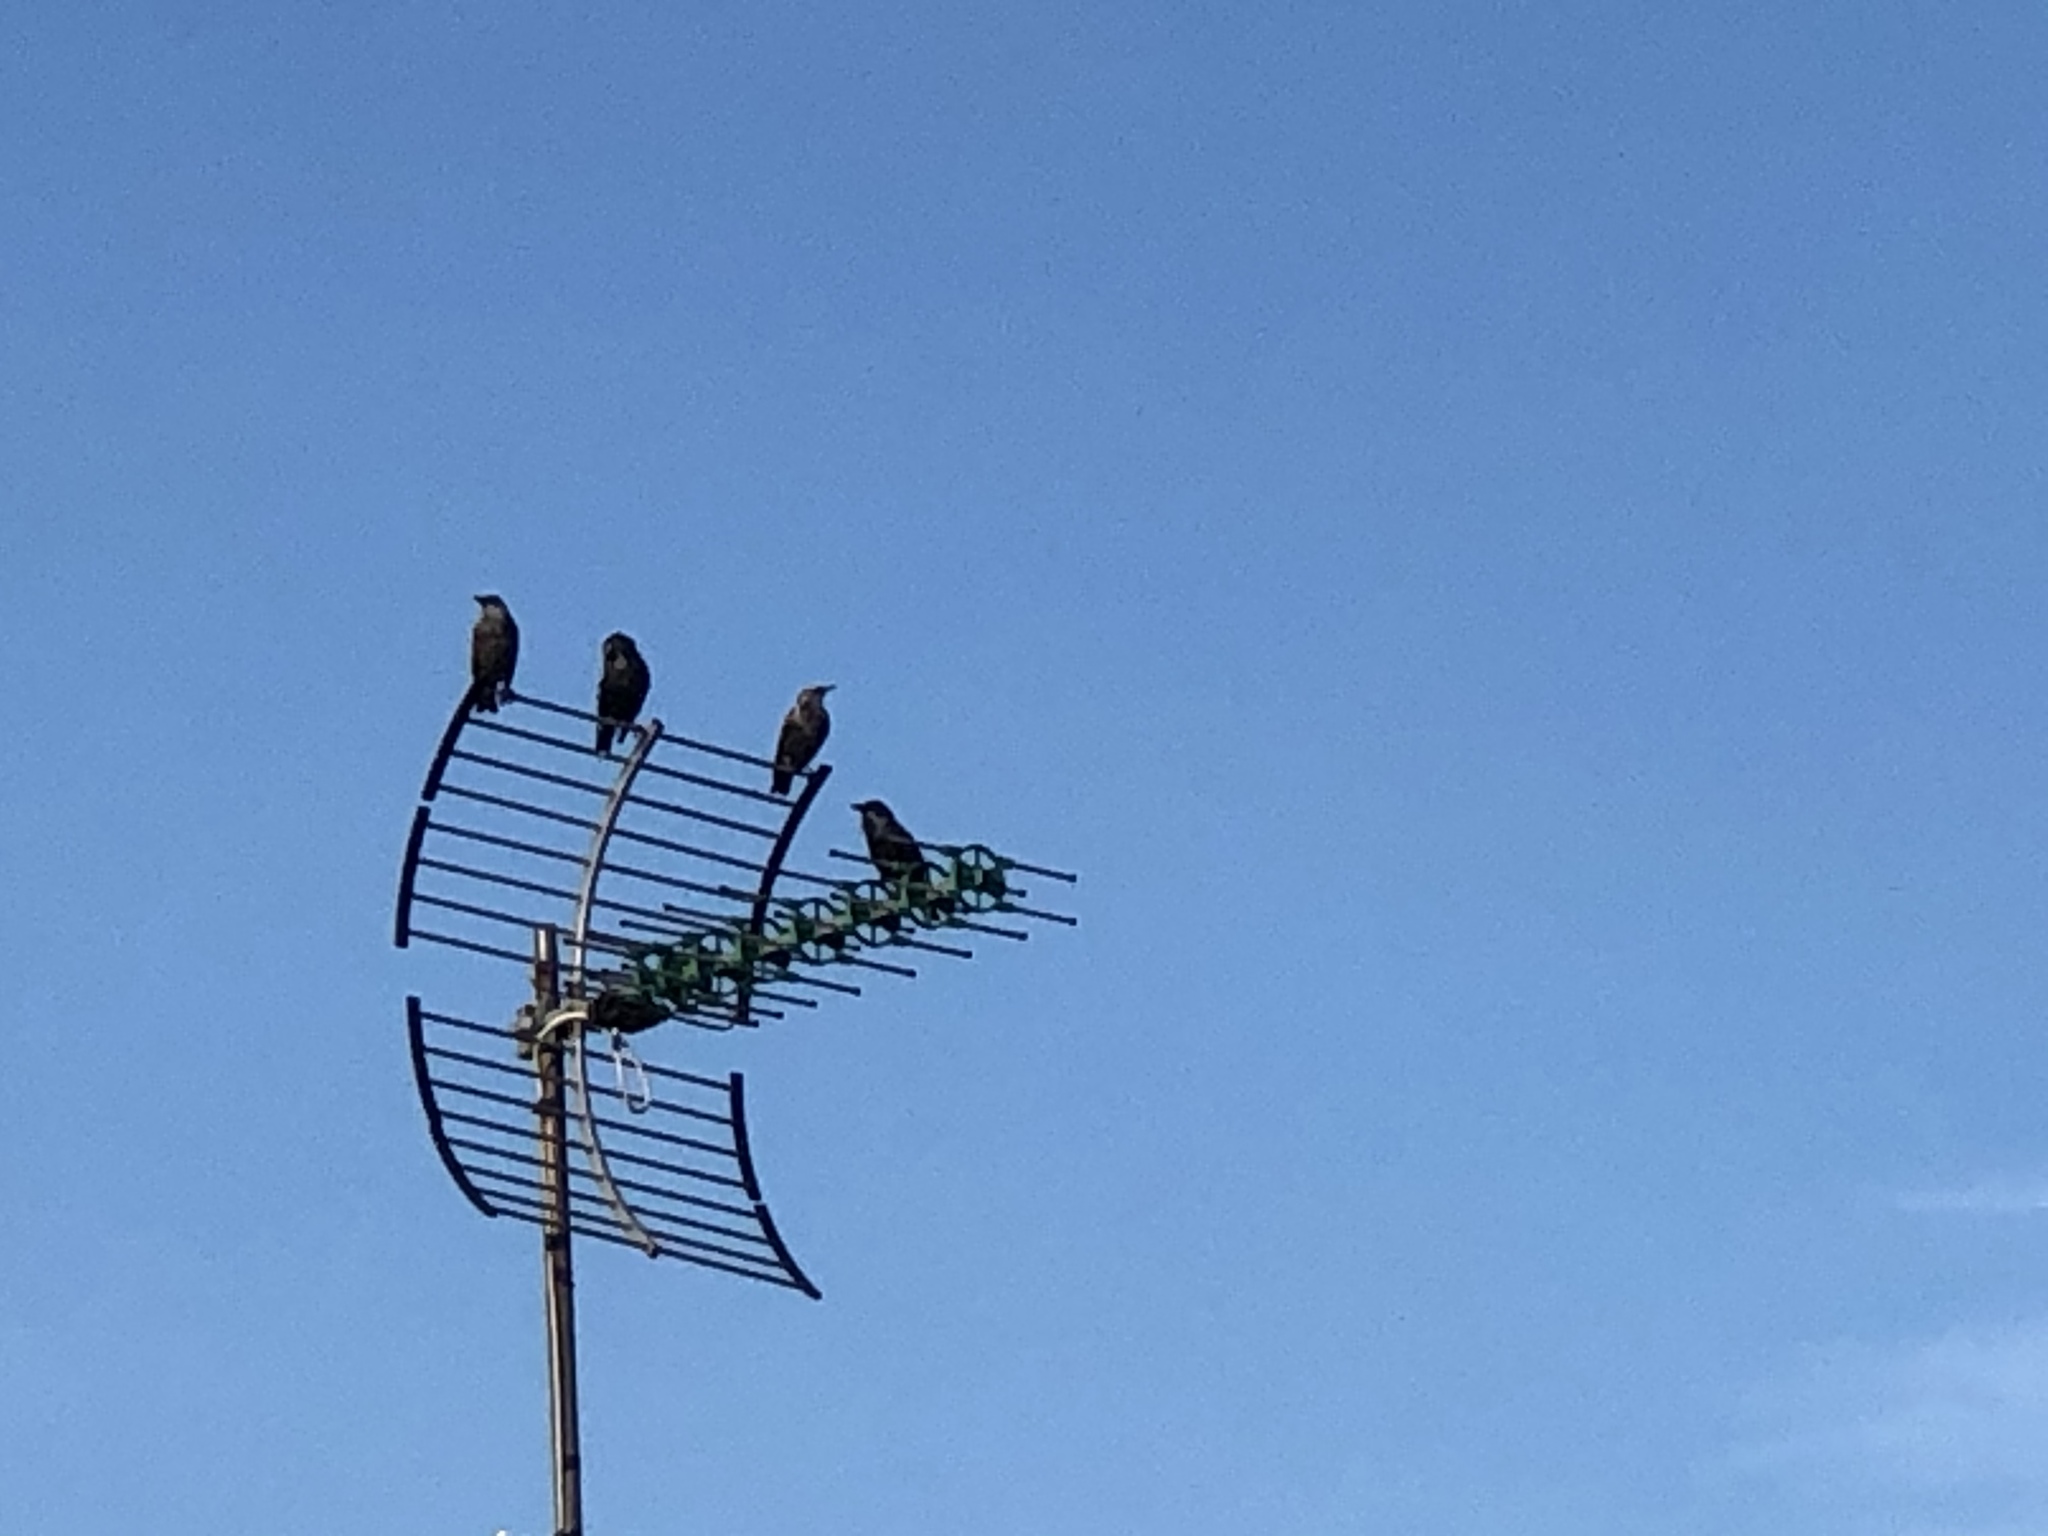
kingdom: Animalia
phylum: Chordata
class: Aves
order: Passeriformes
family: Sturnidae
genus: Sturnus
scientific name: Sturnus unicolor
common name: Spotless starling
